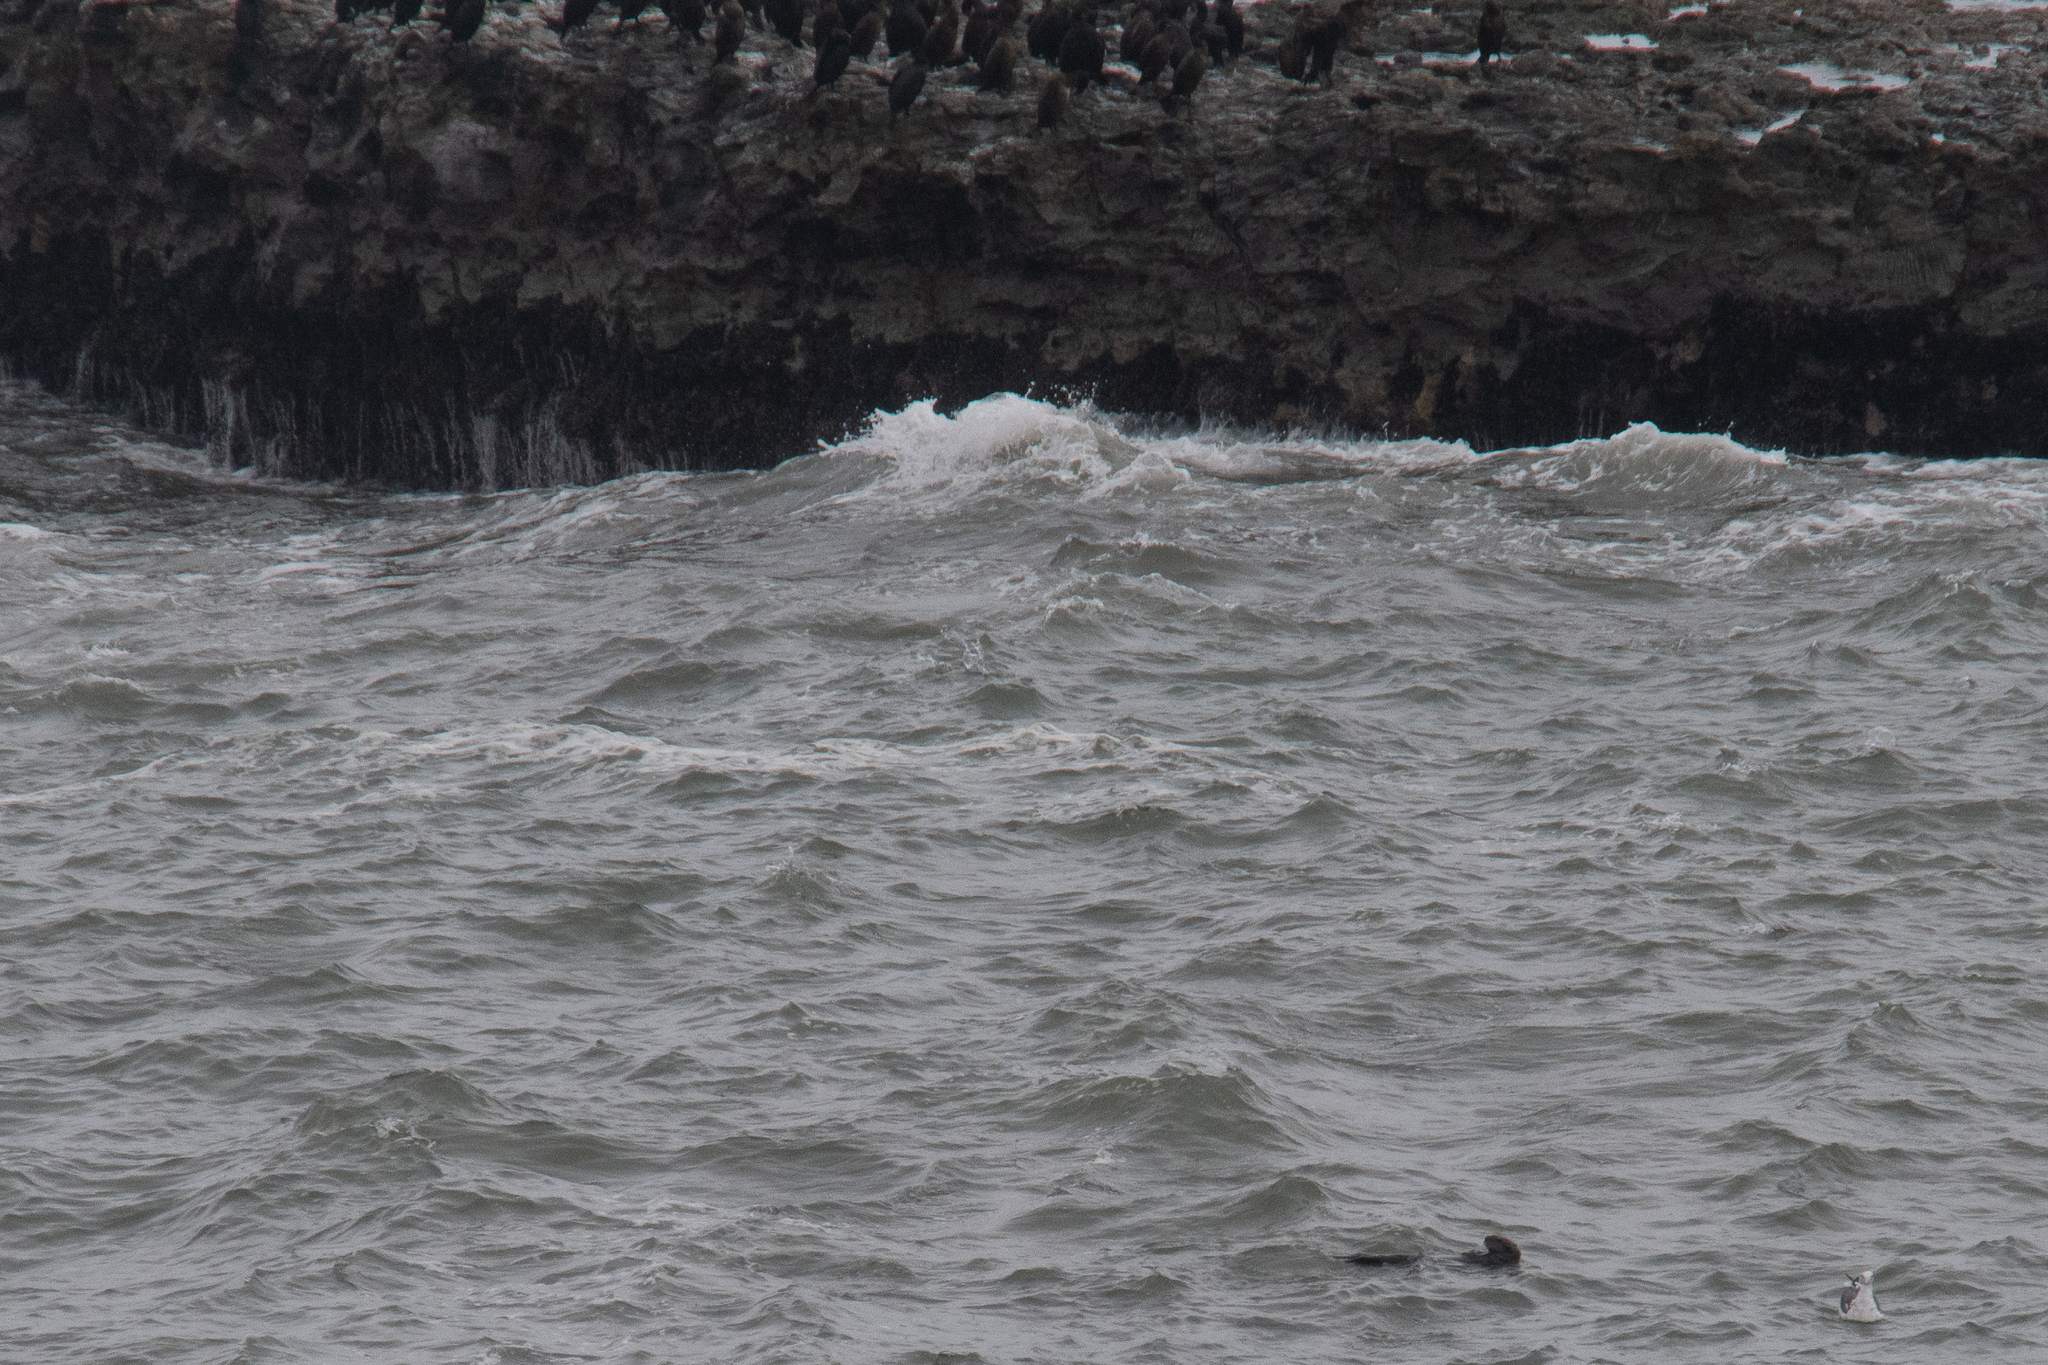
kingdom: Animalia
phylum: Chordata
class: Mammalia
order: Carnivora
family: Mustelidae
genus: Enhydra
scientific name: Enhydra lutris
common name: Sea otter
